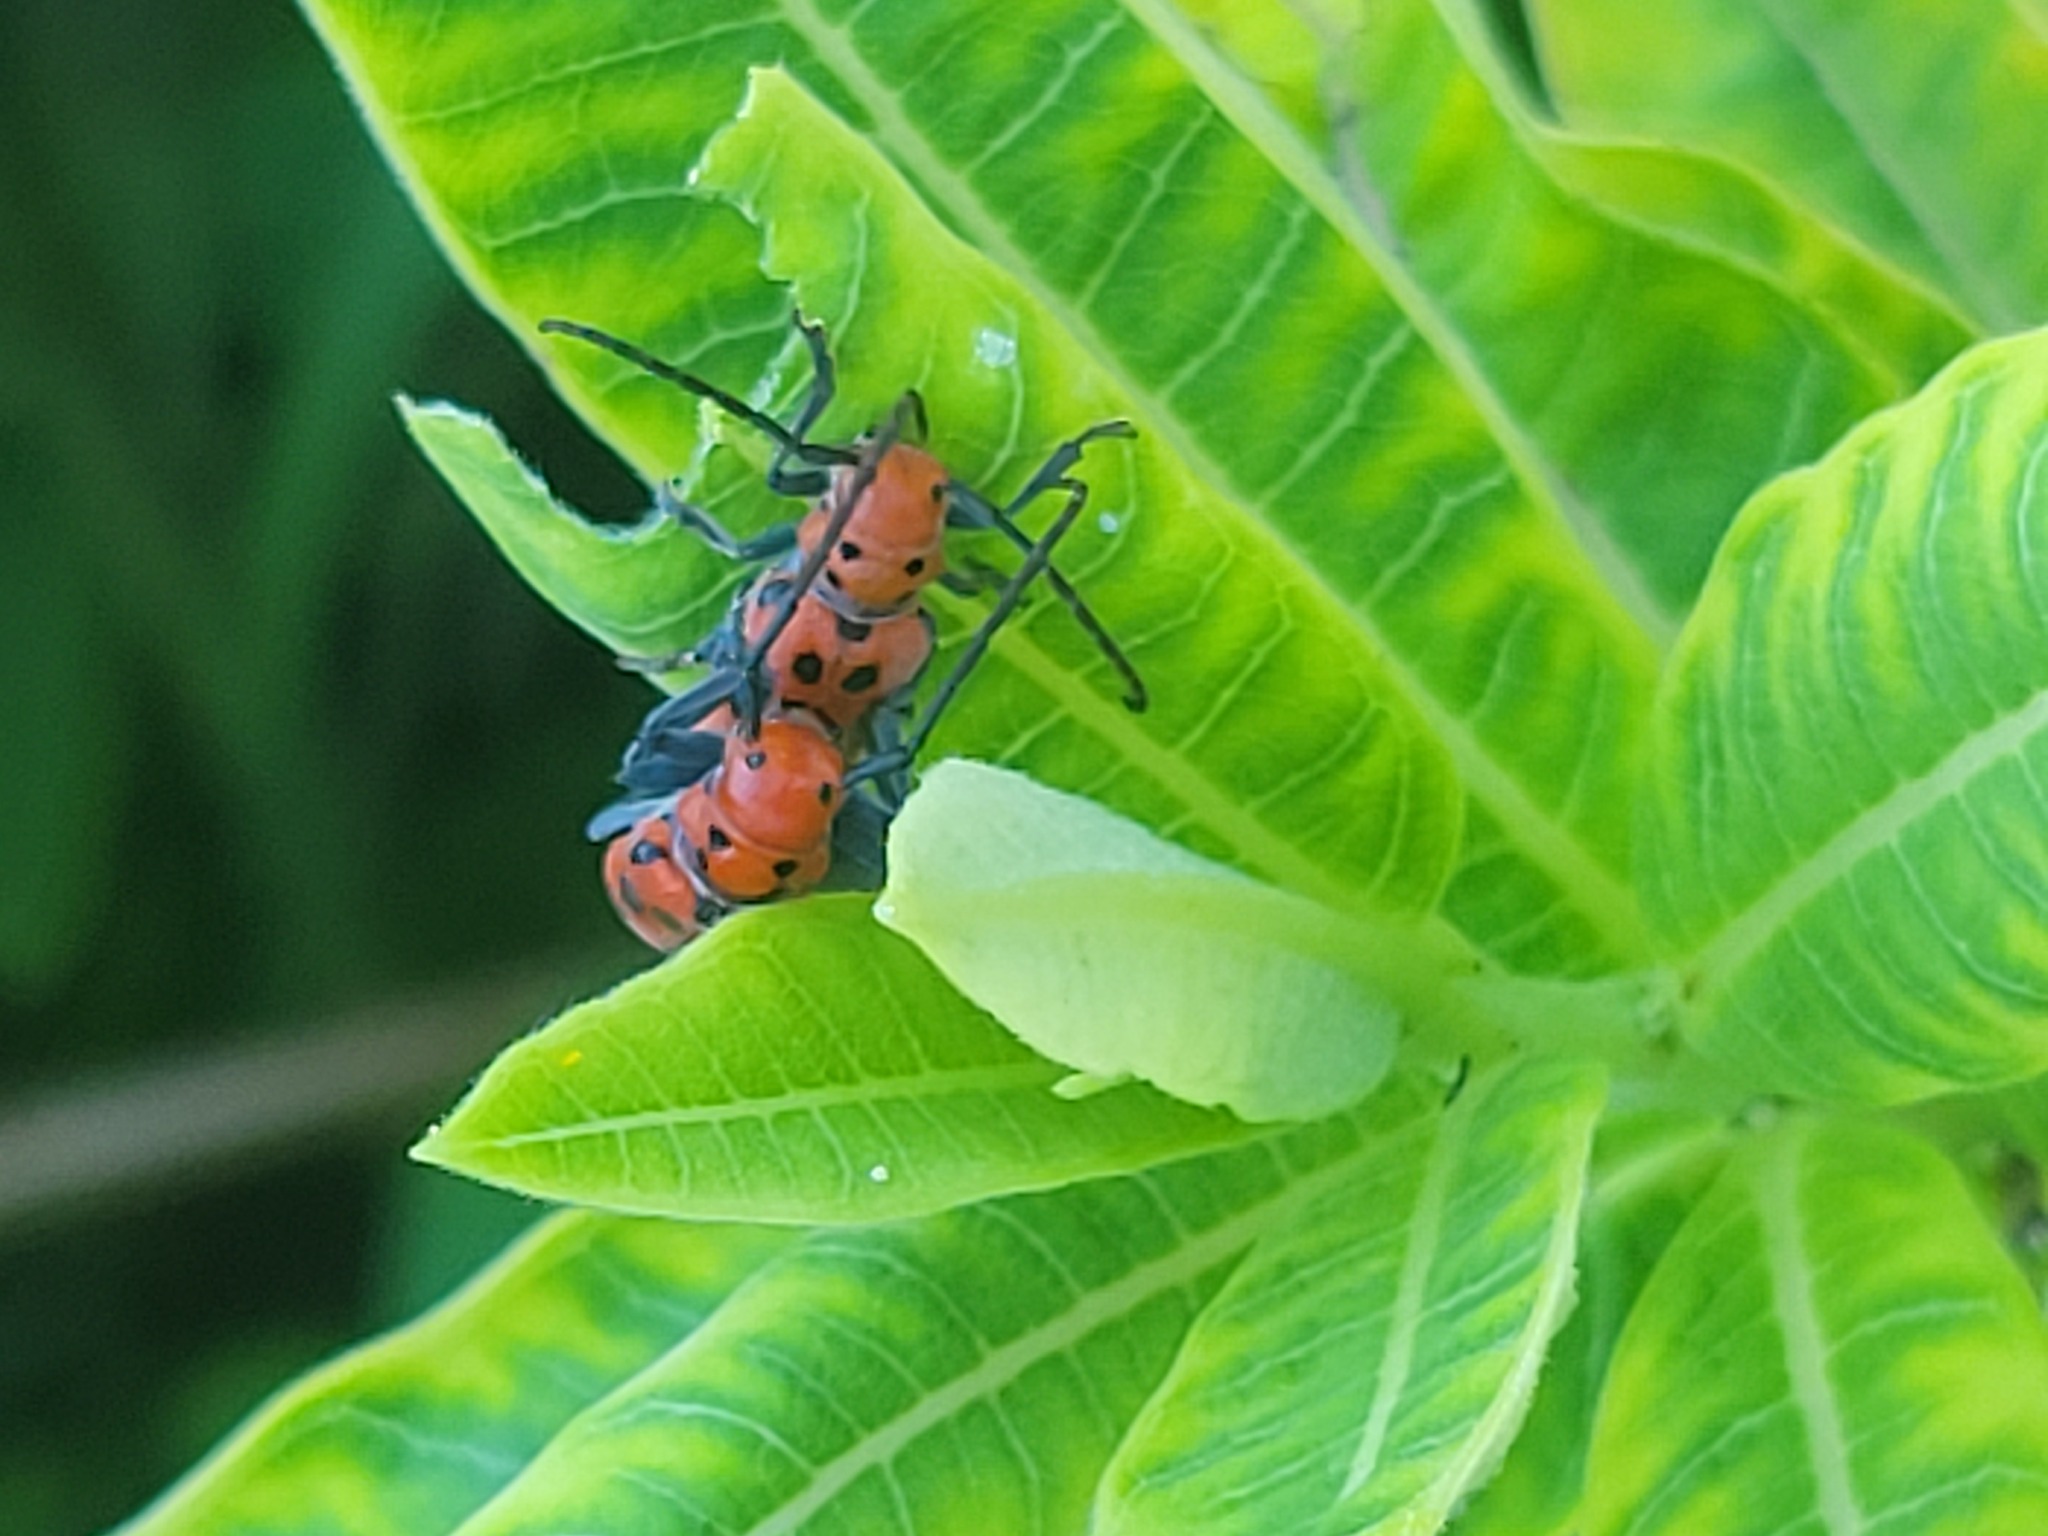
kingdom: Animalia
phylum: Arthropoda
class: Insecta
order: Coleoptera
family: Cerambycidae
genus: Tetraopes
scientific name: Tetraopes tetrophthalmus
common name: Red milkweed beetle
